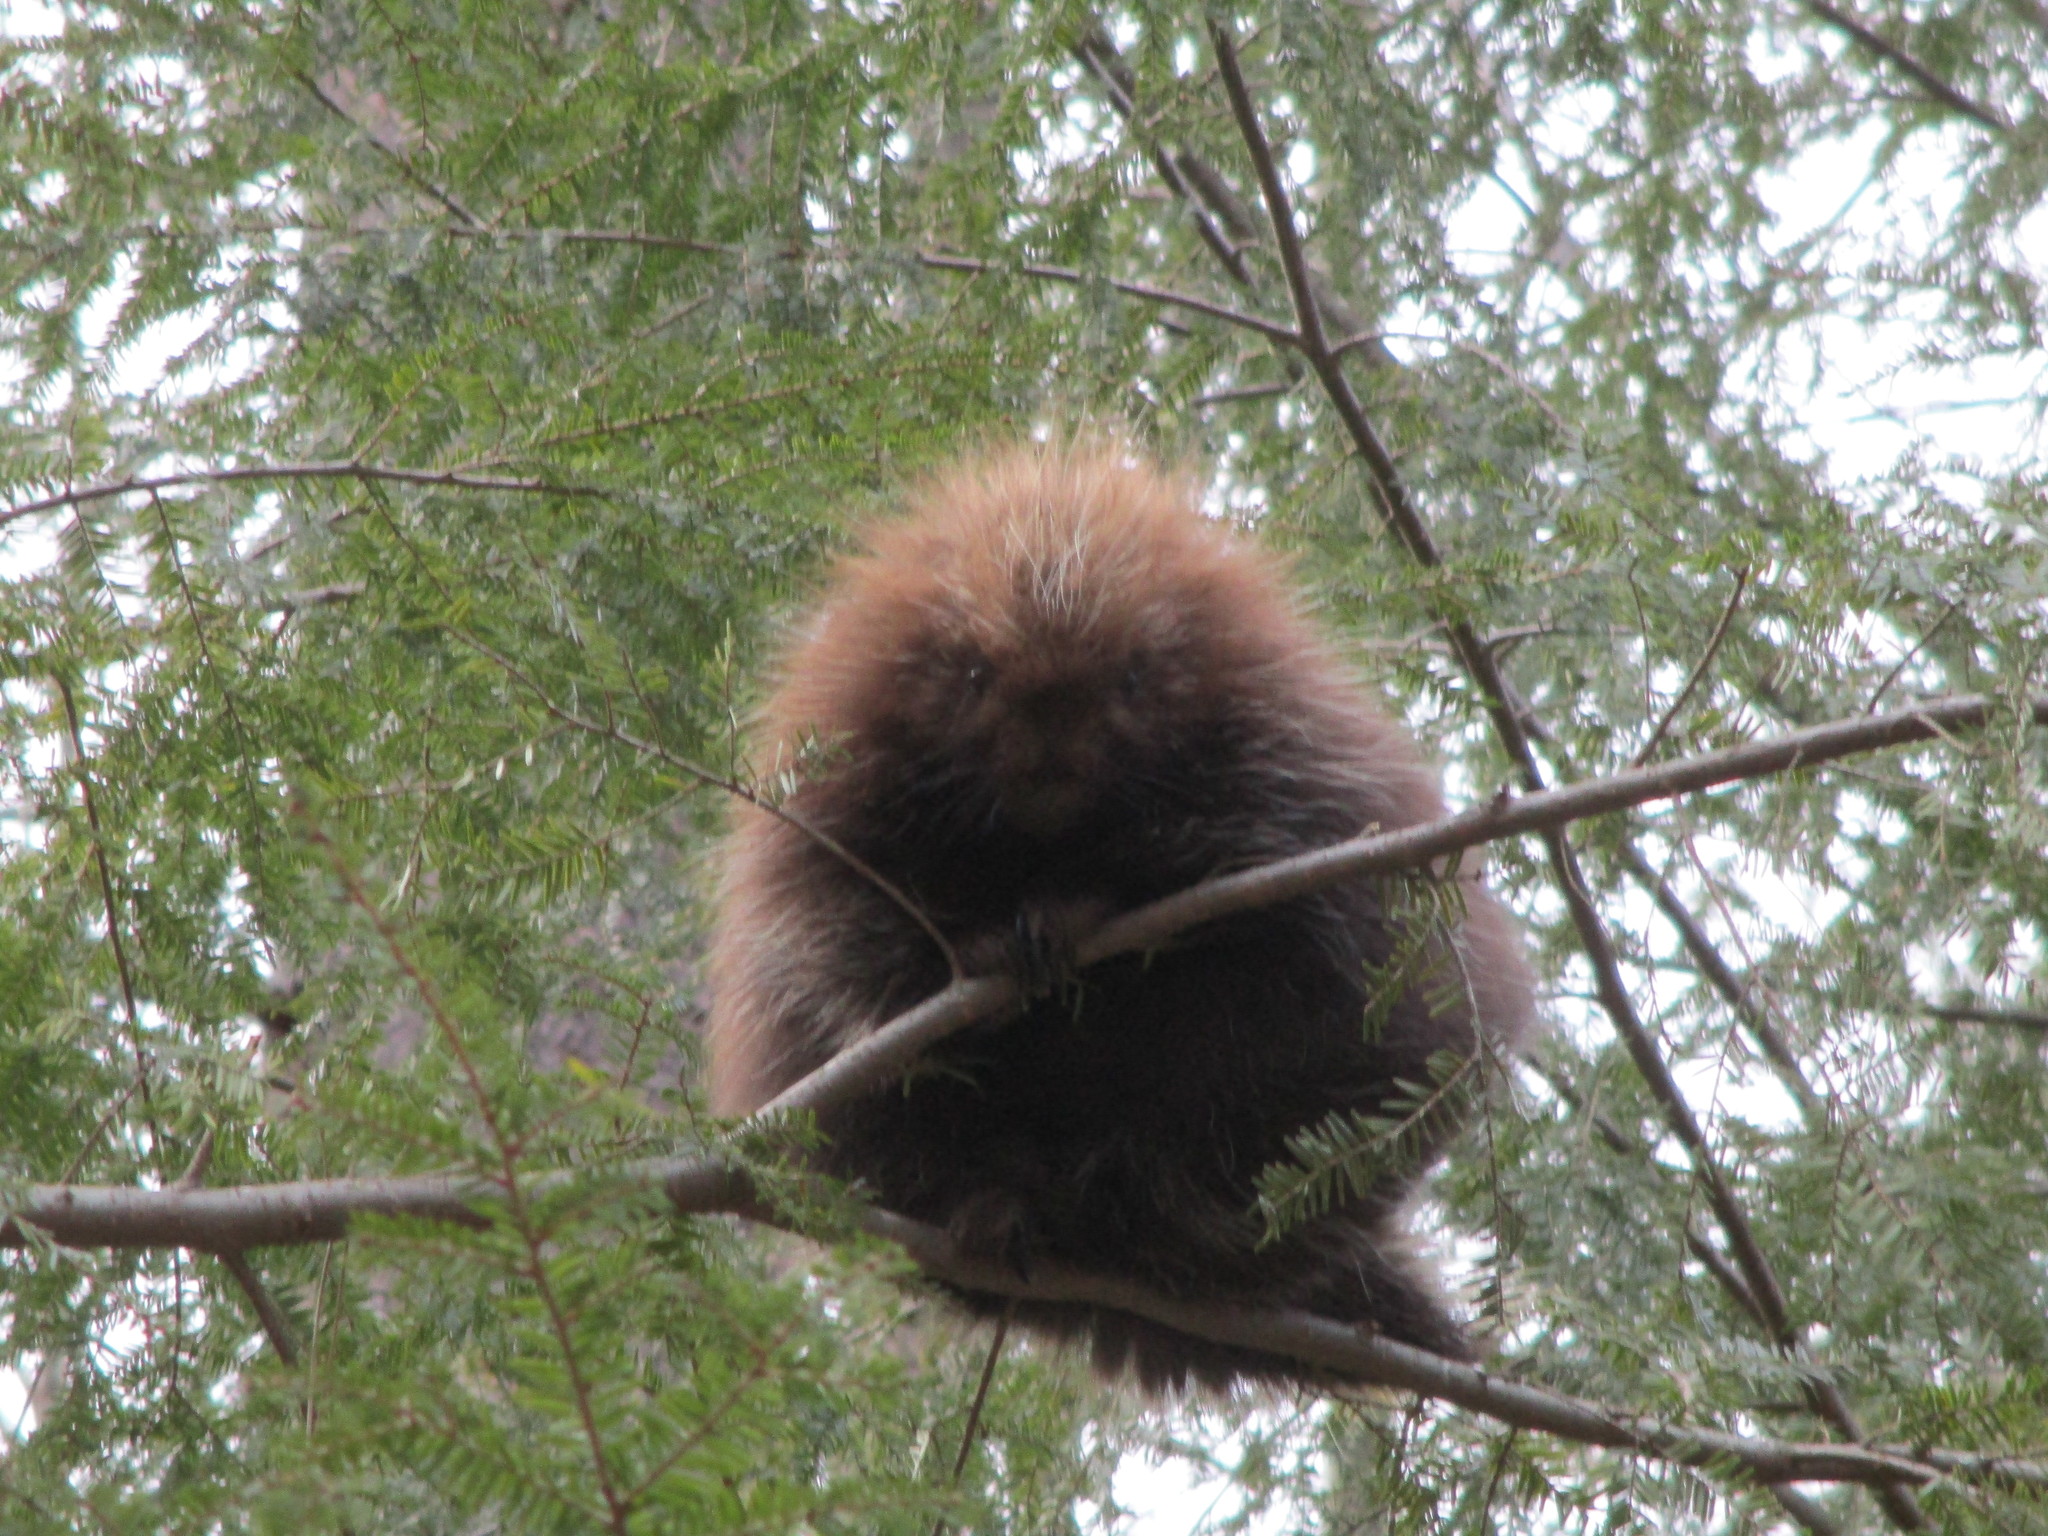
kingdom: Animalia
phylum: Chordata
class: Mammalia
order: Rodentia
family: Erethizontidae
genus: Erethizon
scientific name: Erethizon dorsatus
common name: North american porcupine
